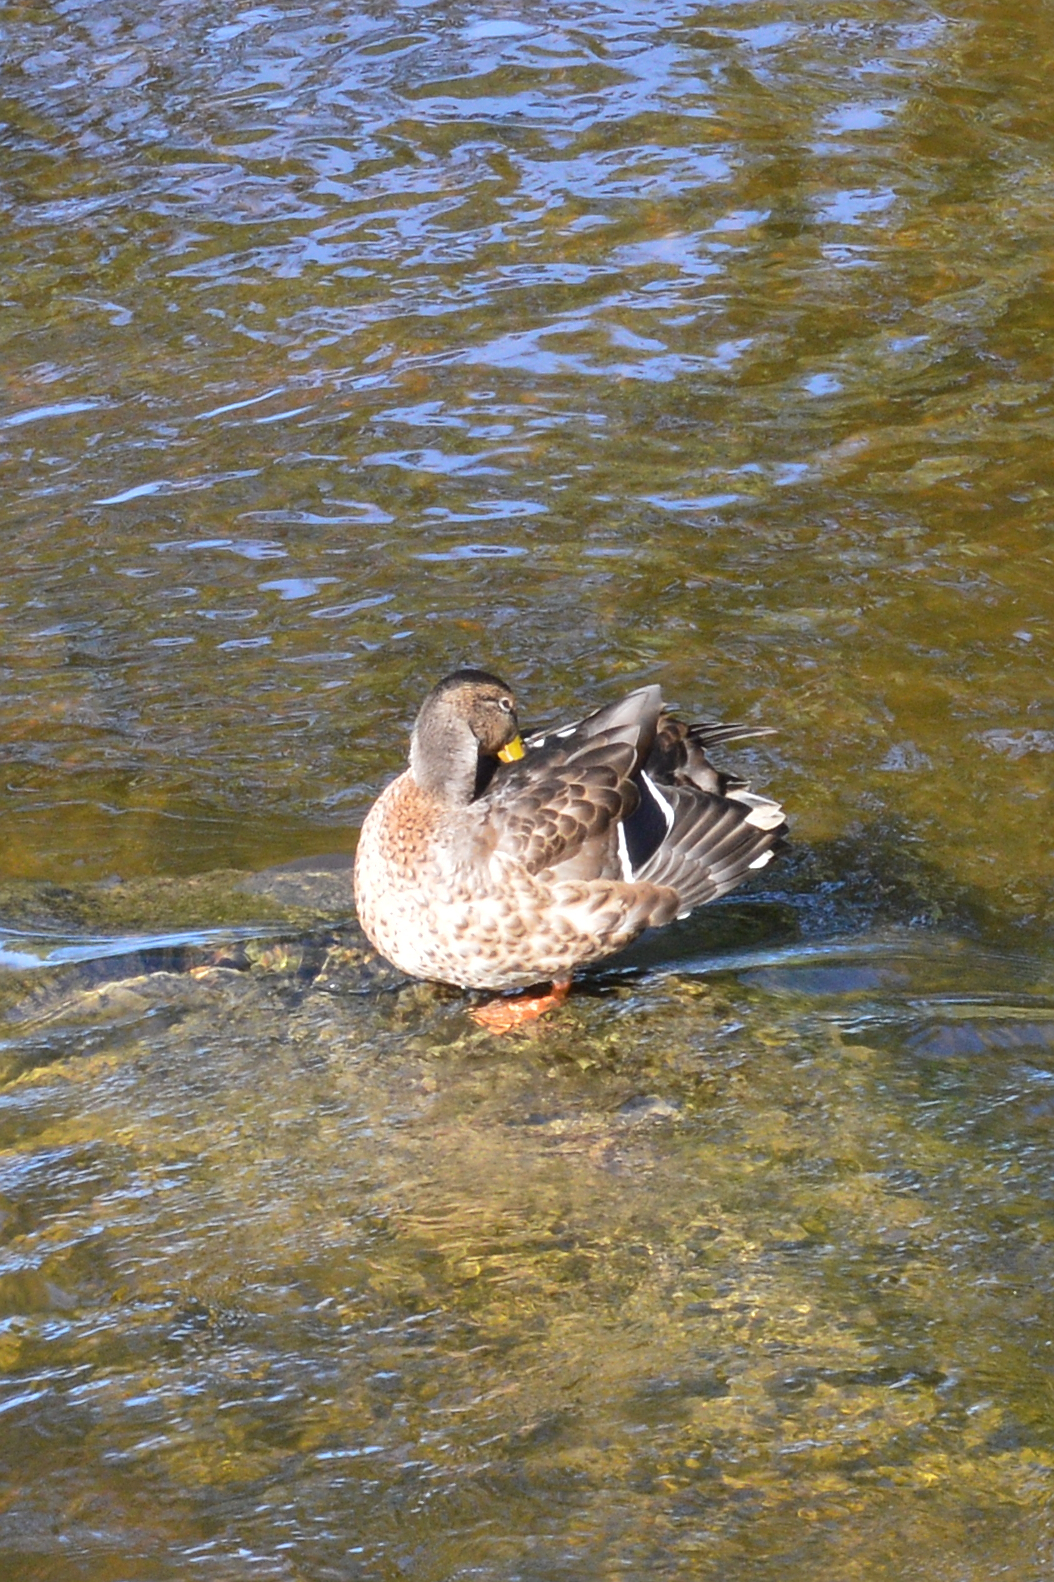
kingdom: Animalia
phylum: Chordata
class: Aves
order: Anseriformes
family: Anatidae
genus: Anas
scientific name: Anas platyrhynchos
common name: Mallard
